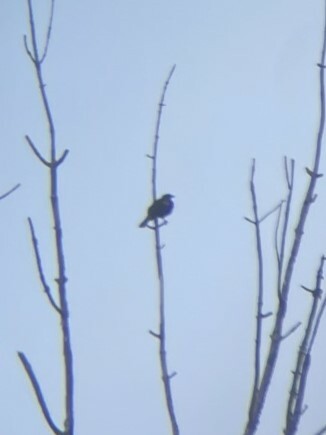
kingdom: Animalia
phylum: Chordata
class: Aves
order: Passeriformes
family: Icteridae
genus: Agelaius
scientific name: Agelaius phoeniceus
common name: Red-winged blackbird
